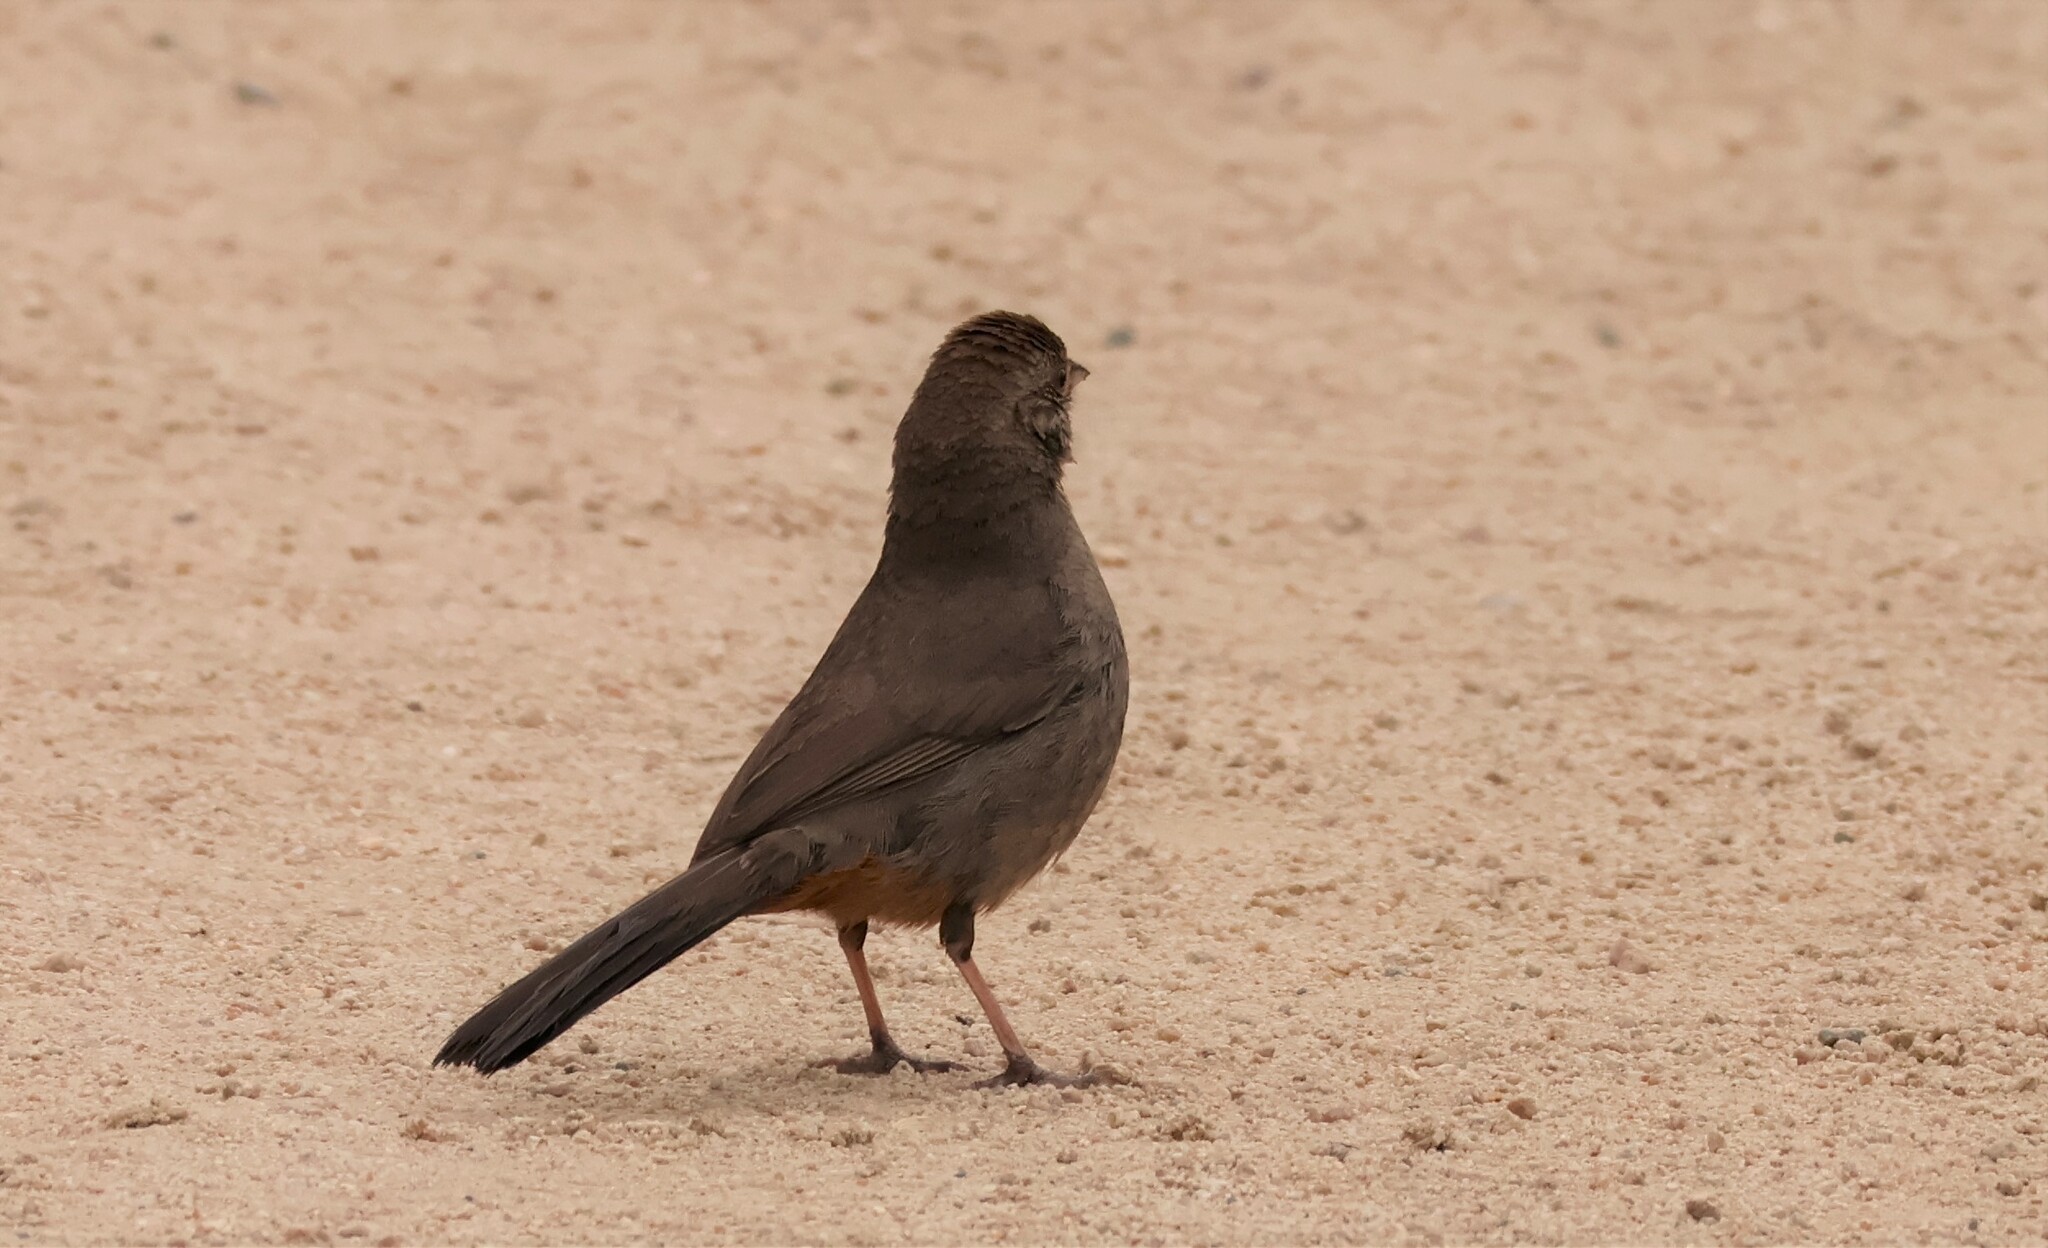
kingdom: Animalia
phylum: Chordata
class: Aves
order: Passeriformes
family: Passerellidae
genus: Melozone
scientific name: Melozone crissalis
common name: California towhee
